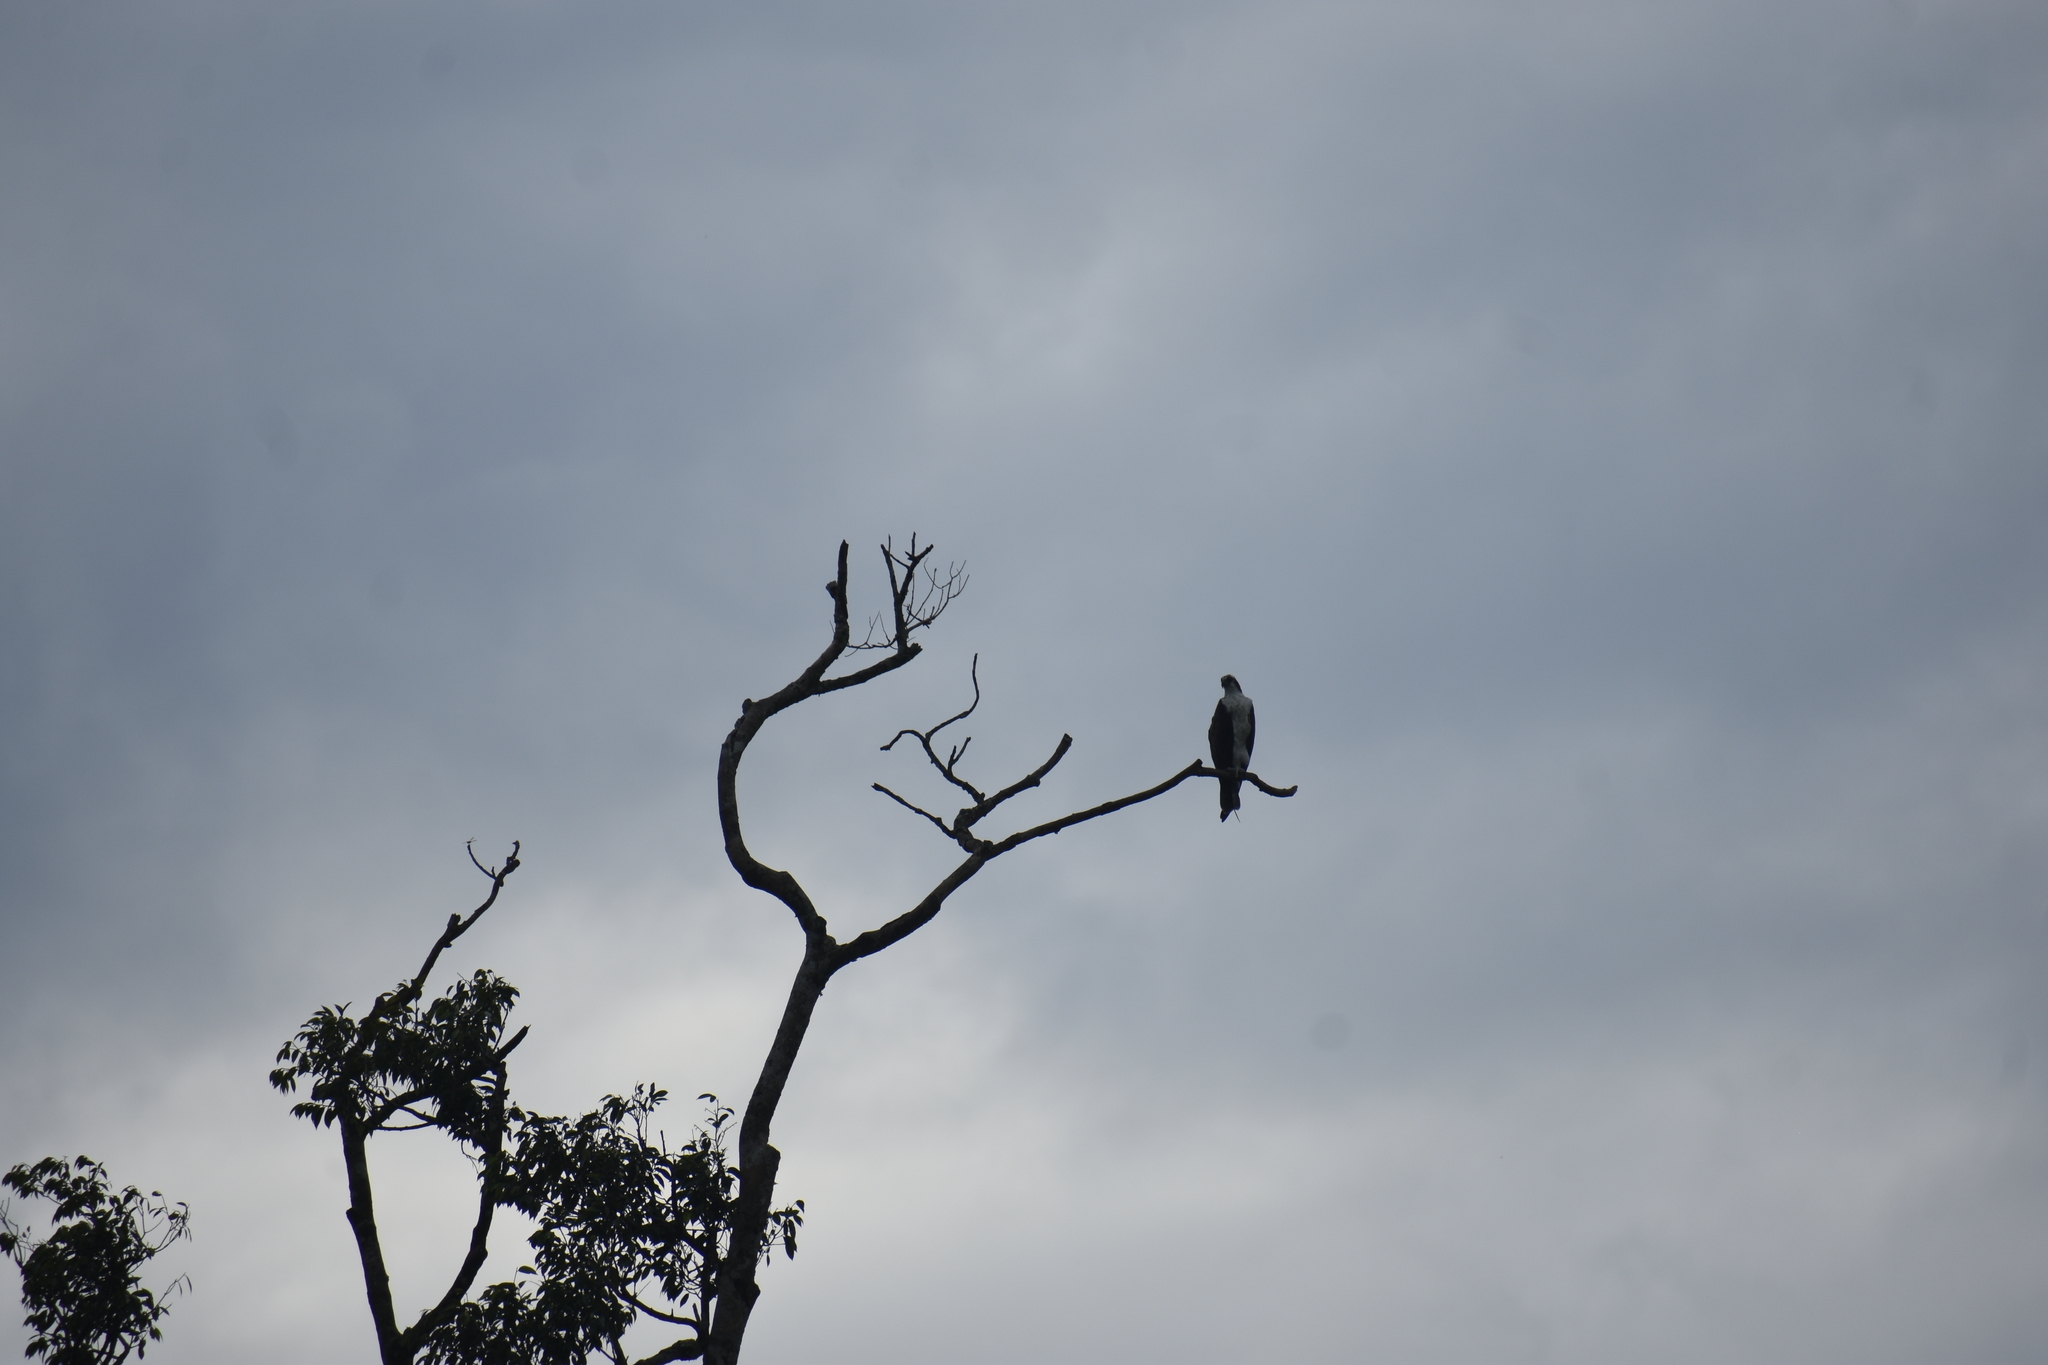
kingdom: Animalia
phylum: Chordata
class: Aves
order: Accipitriformes
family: Pandionidae
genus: Pandion
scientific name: Pandion haliaetus
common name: Osprey
